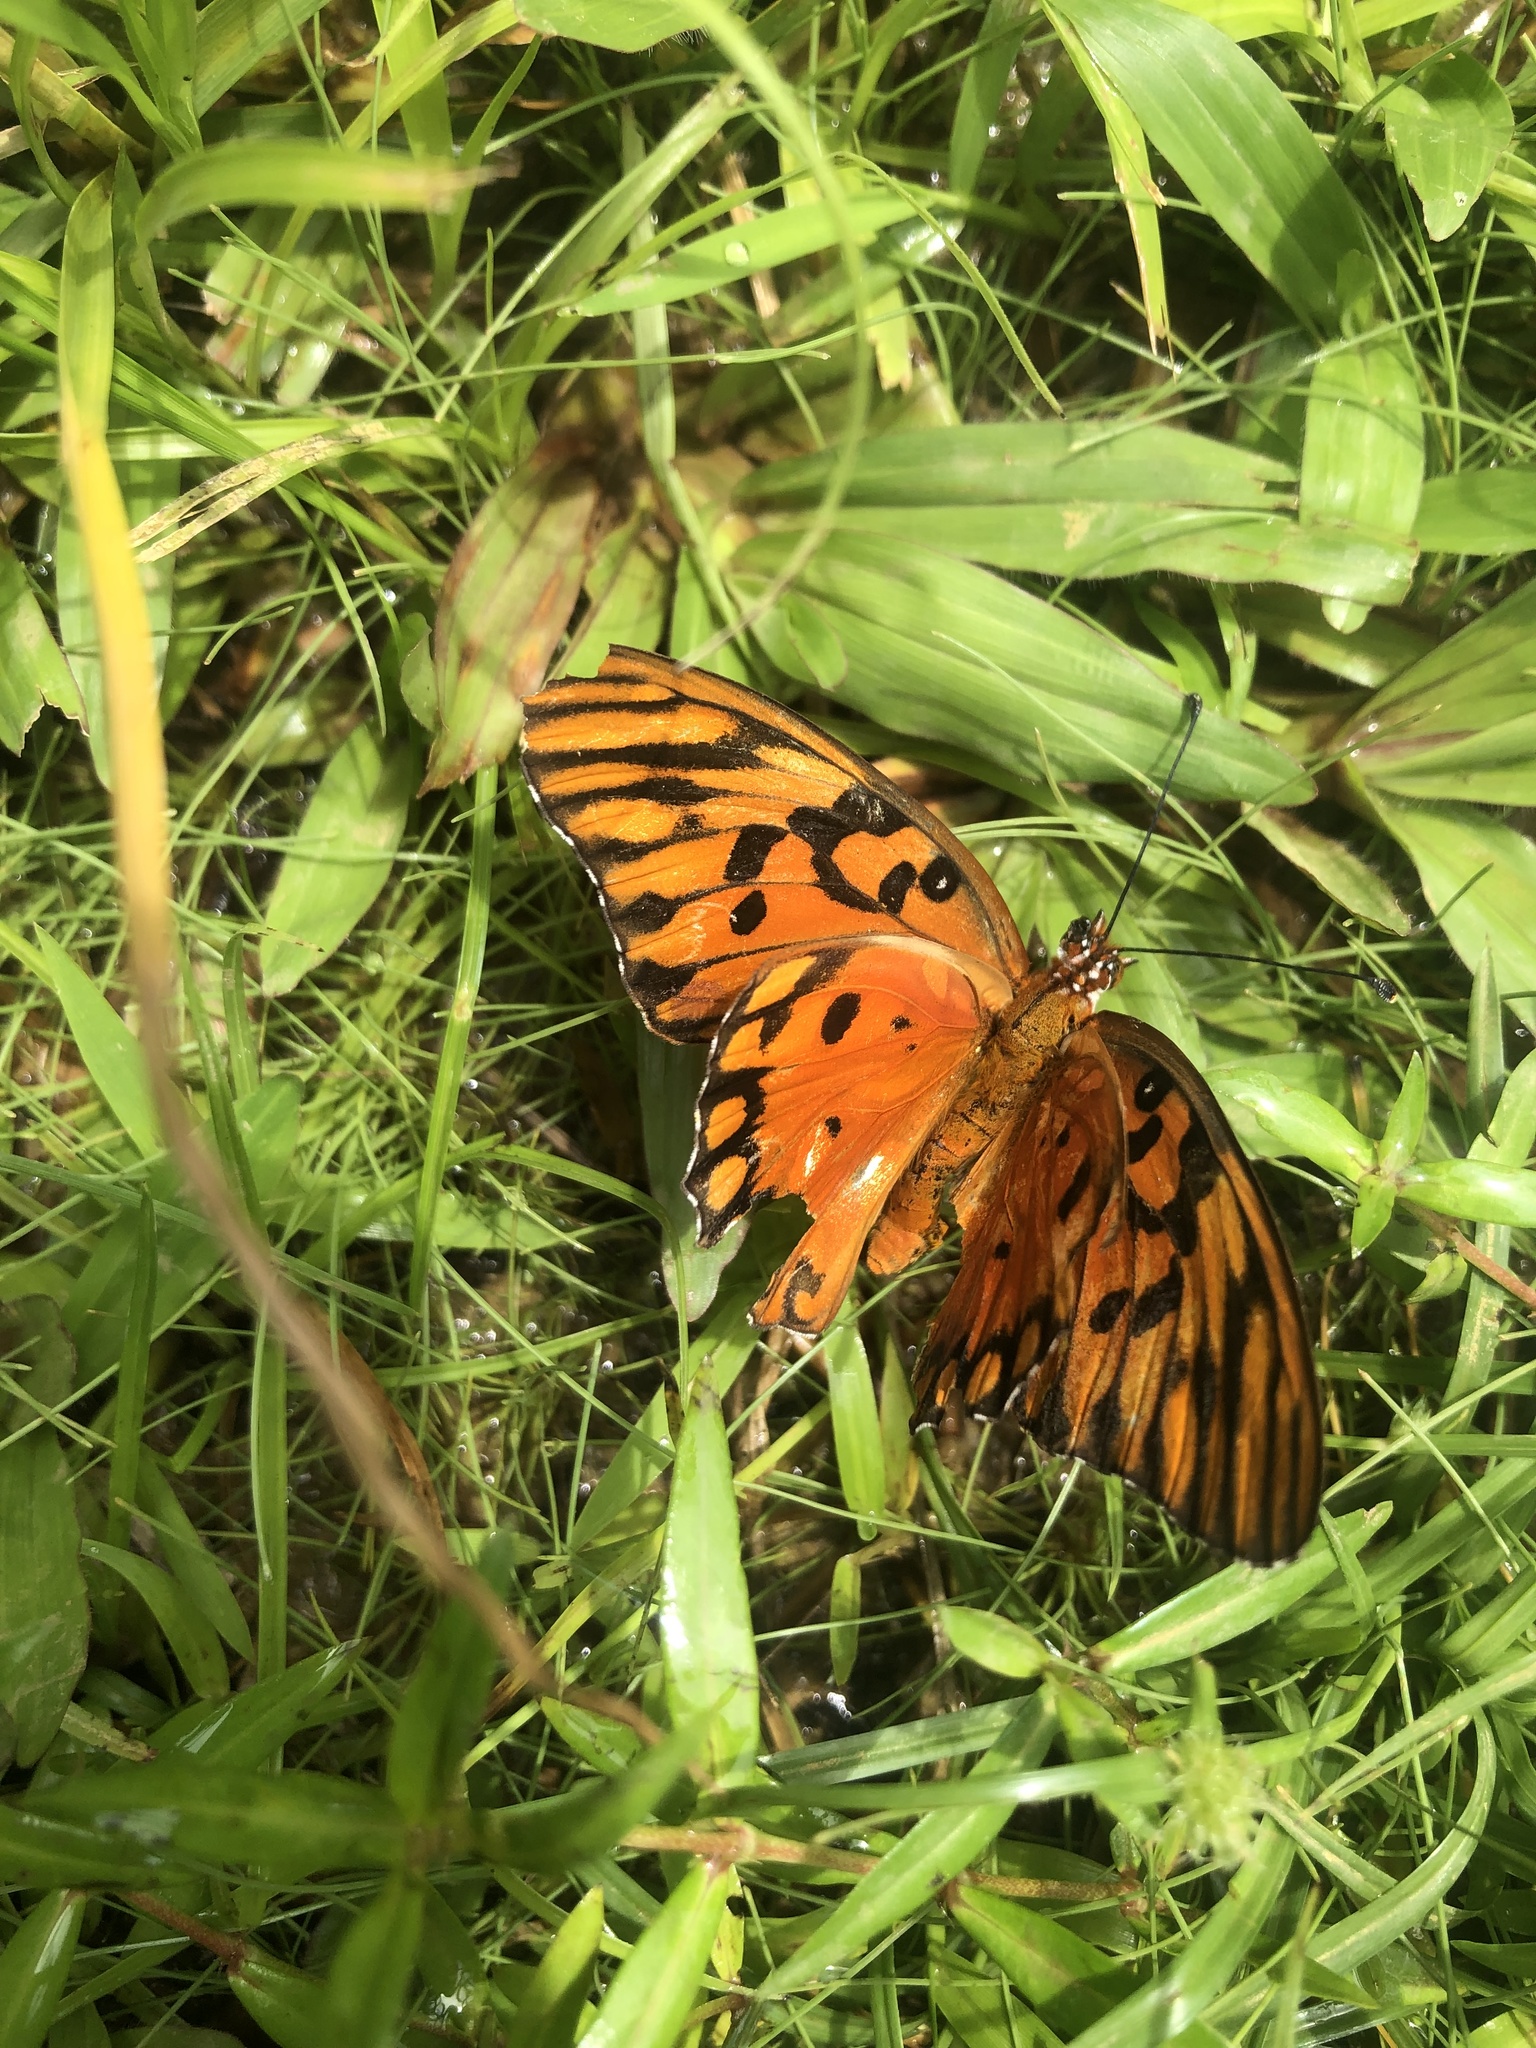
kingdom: Animalia
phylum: Arthropoda
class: Insecta
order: Lepidoptera
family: Nymphalidae
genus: Dione
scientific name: Dione vanillae
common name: Gulf fritillary
